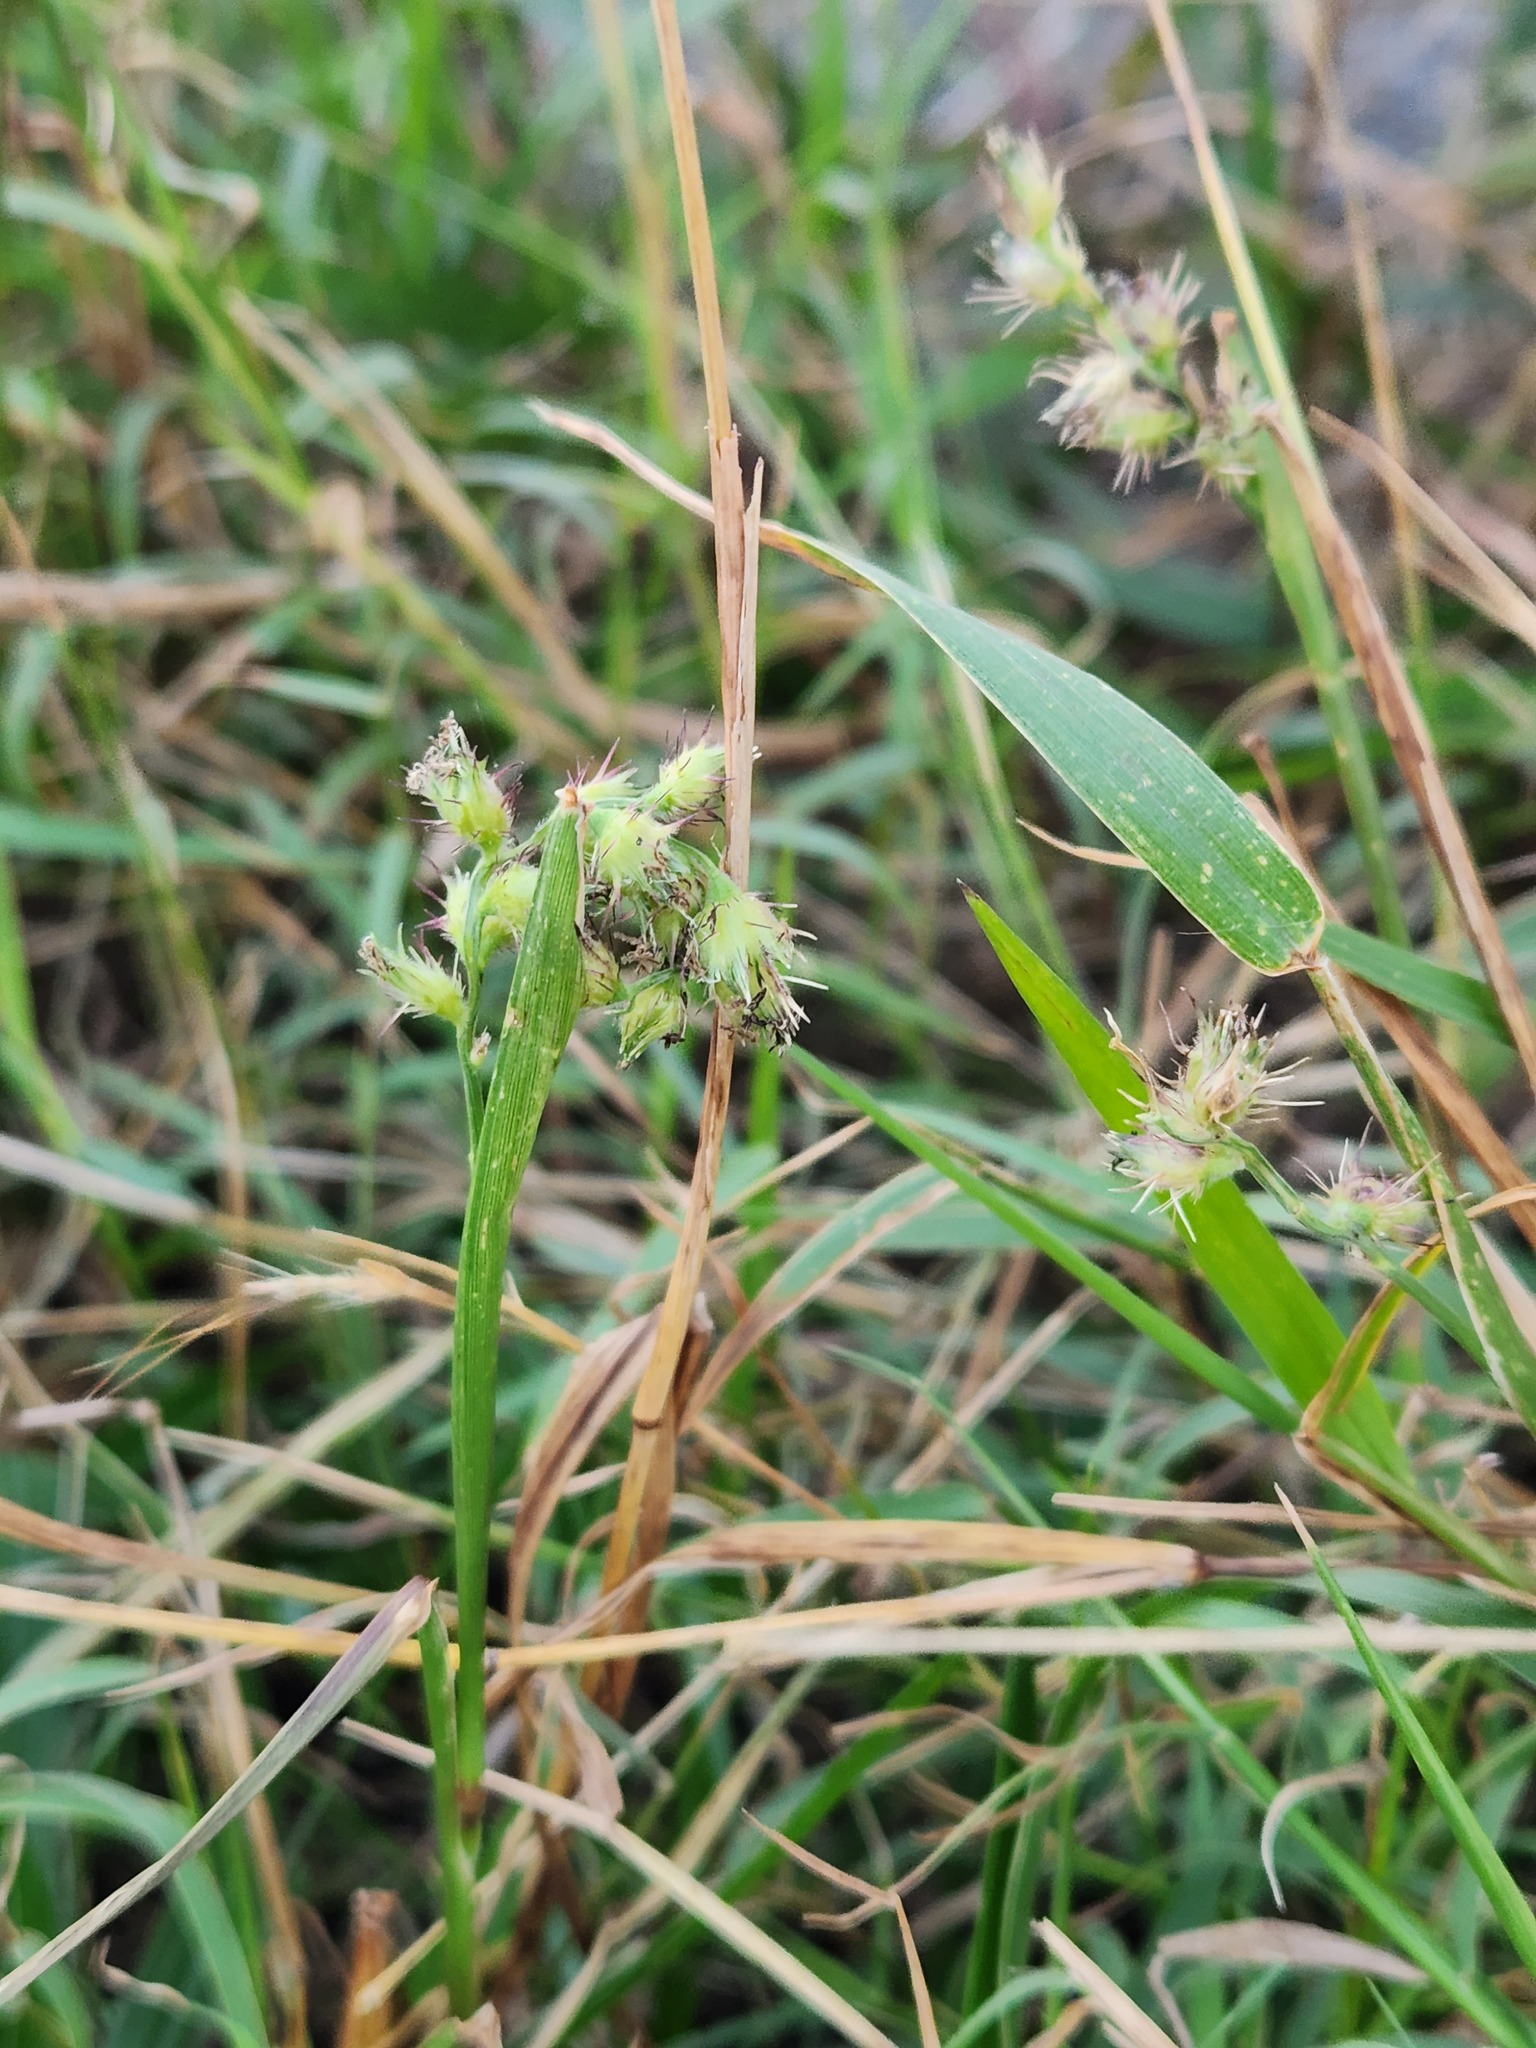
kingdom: Plantae
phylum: Tracheophyta
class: Liliopsida
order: Poales
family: Poaceae
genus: Cenchrus
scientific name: Cenchrus echinatus
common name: Southern sandbur
